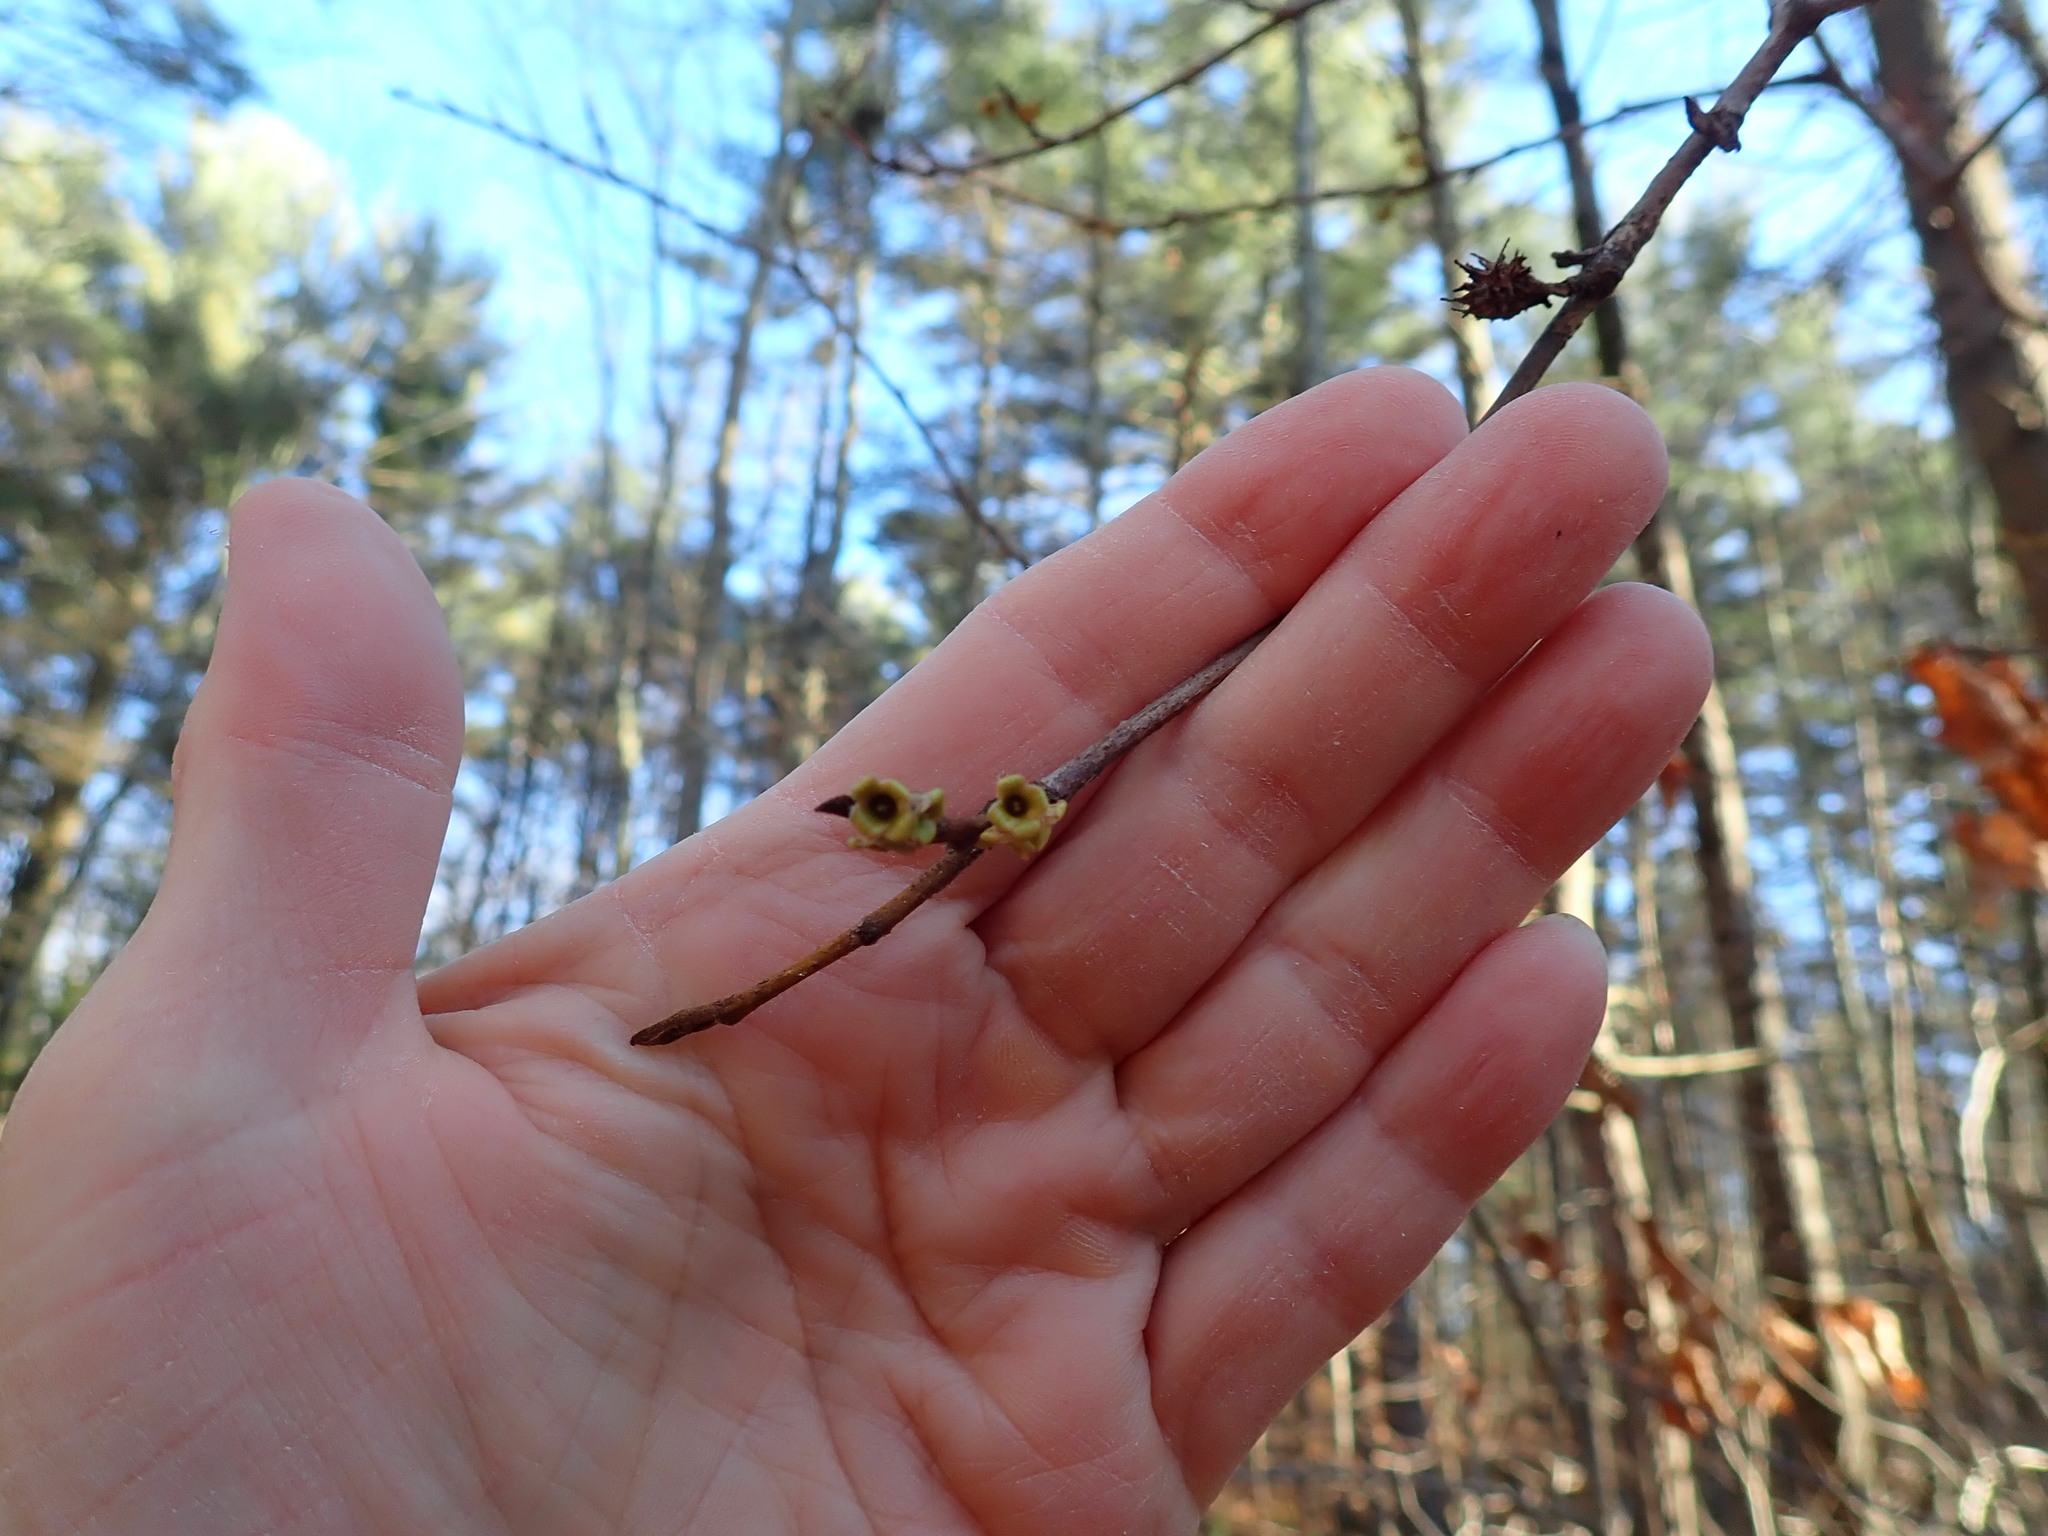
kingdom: Plantae
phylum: Tracheophyta
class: Magnoliopsida
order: Saxifragales
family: Hamamelidaceae
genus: Hamamelis
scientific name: Hamamelis virginiana
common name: Witch-hazel
